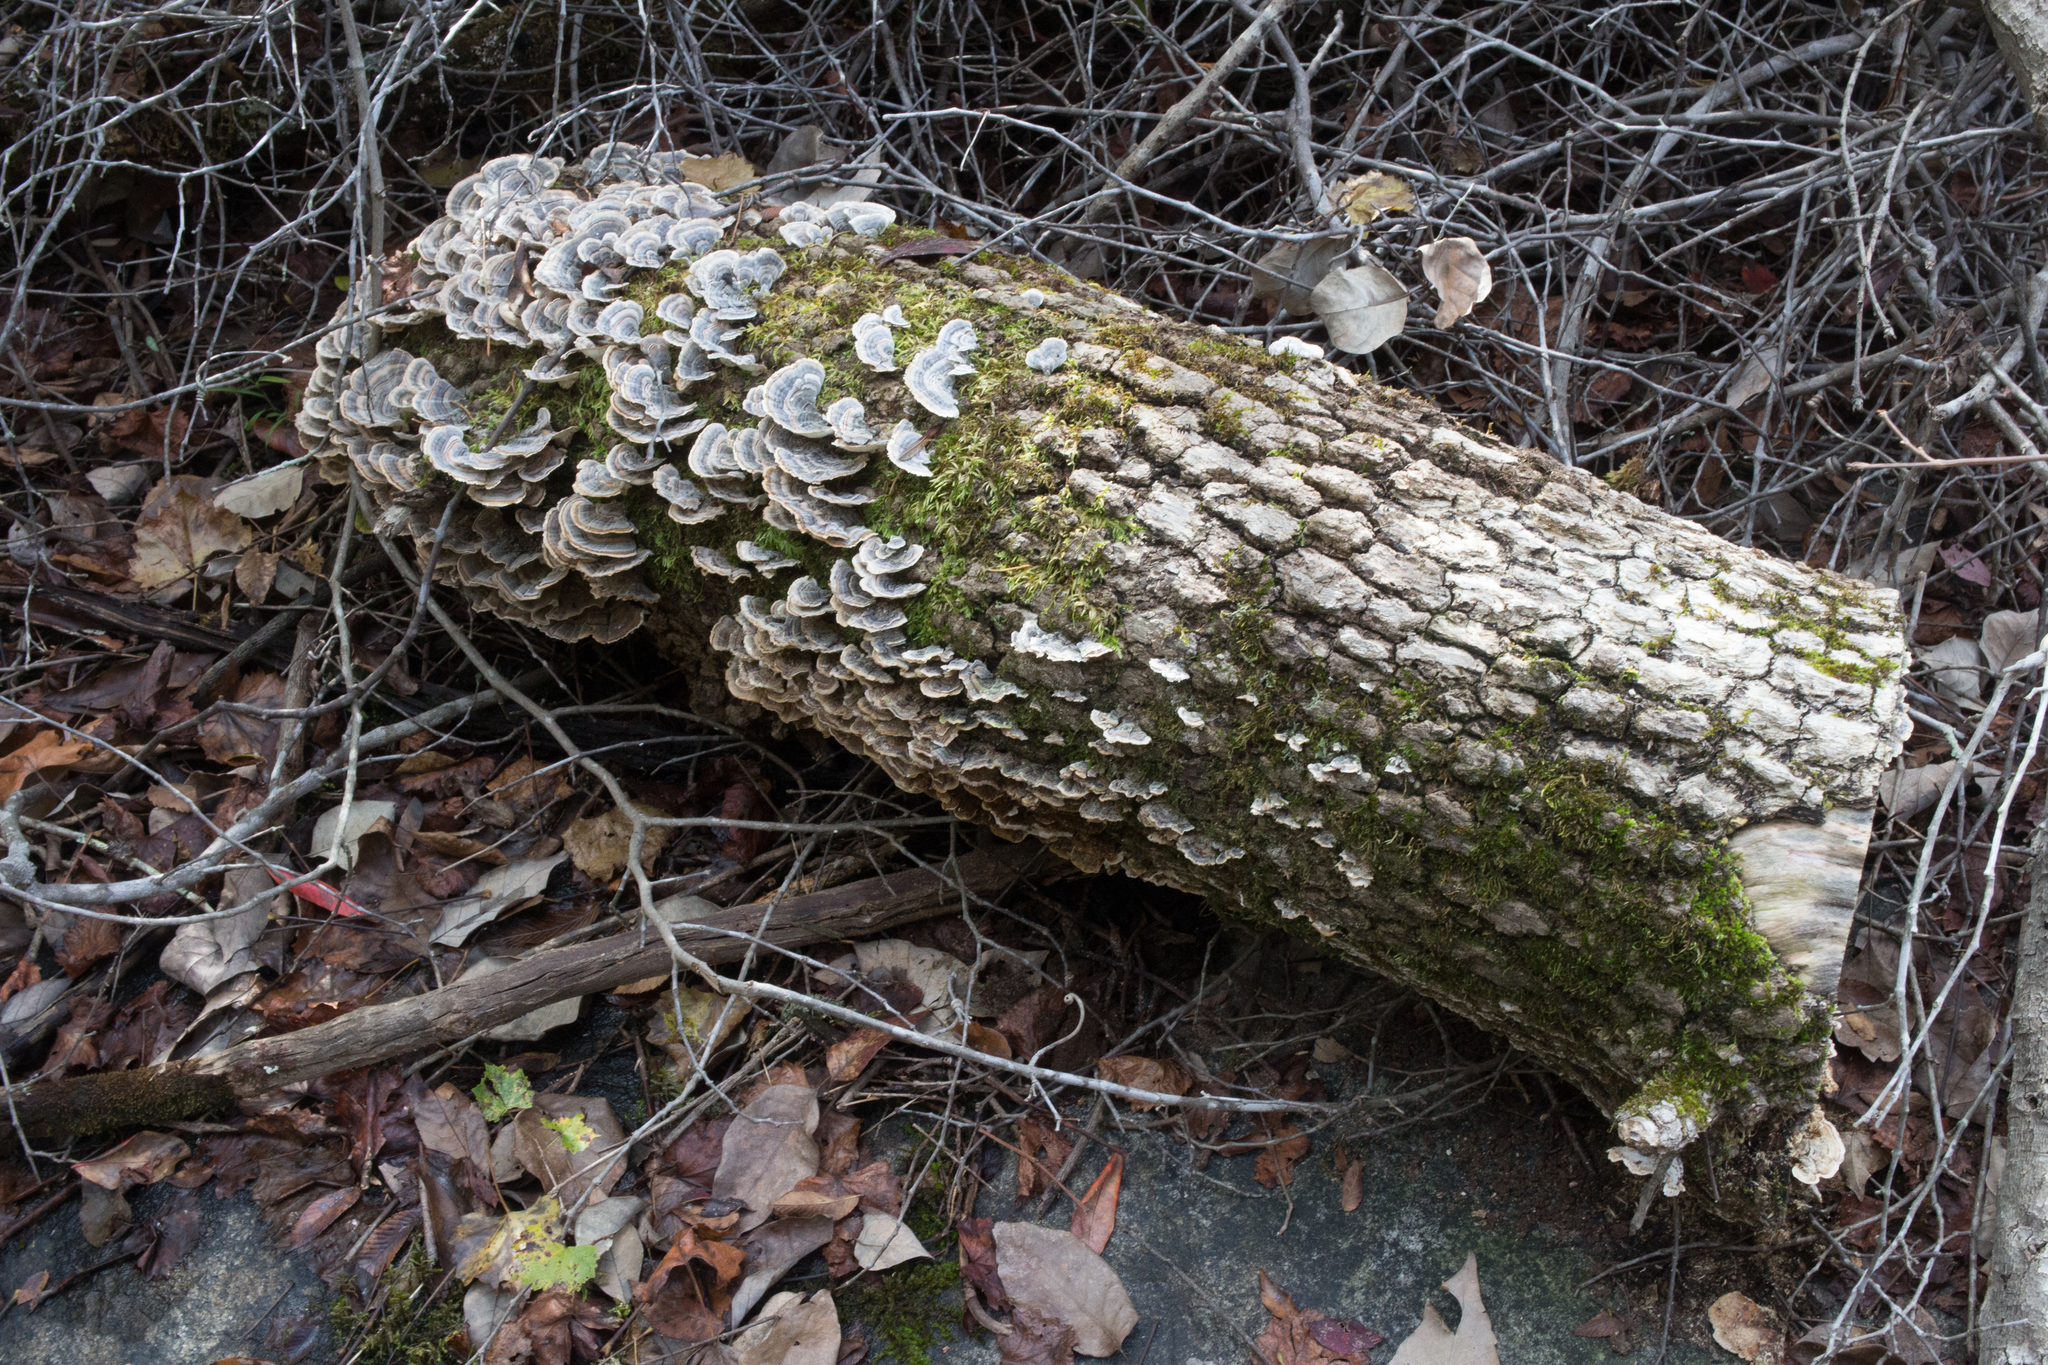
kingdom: Fungi
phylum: Basidiomycota
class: Agaricomycetes
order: Polyporales
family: Polyporaceae
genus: Trametes
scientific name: Trametes versicolor
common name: Turkeytail
